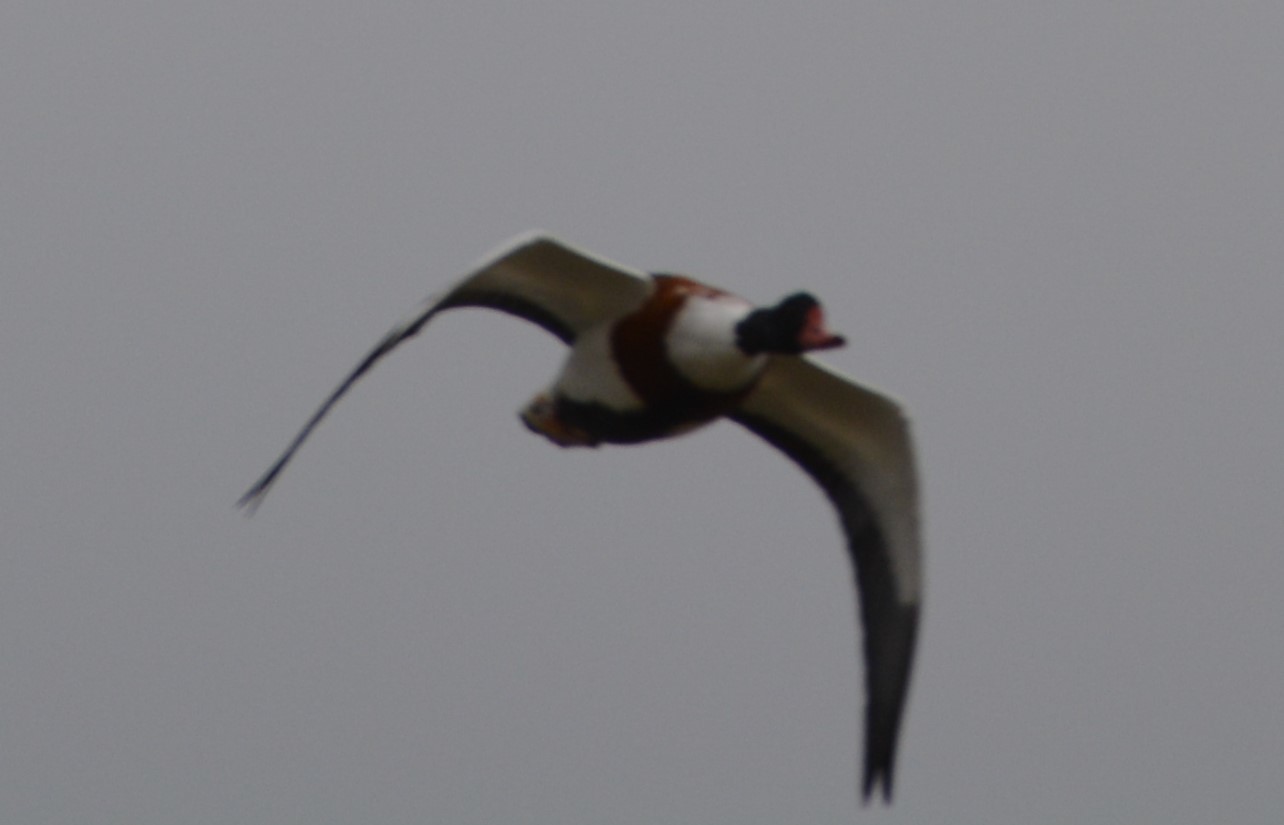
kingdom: Animalia
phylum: Chordata
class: Aves
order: Anseriformes
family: Anatidae
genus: Tadorna
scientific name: Tadorna tadorna
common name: Common shelduck
